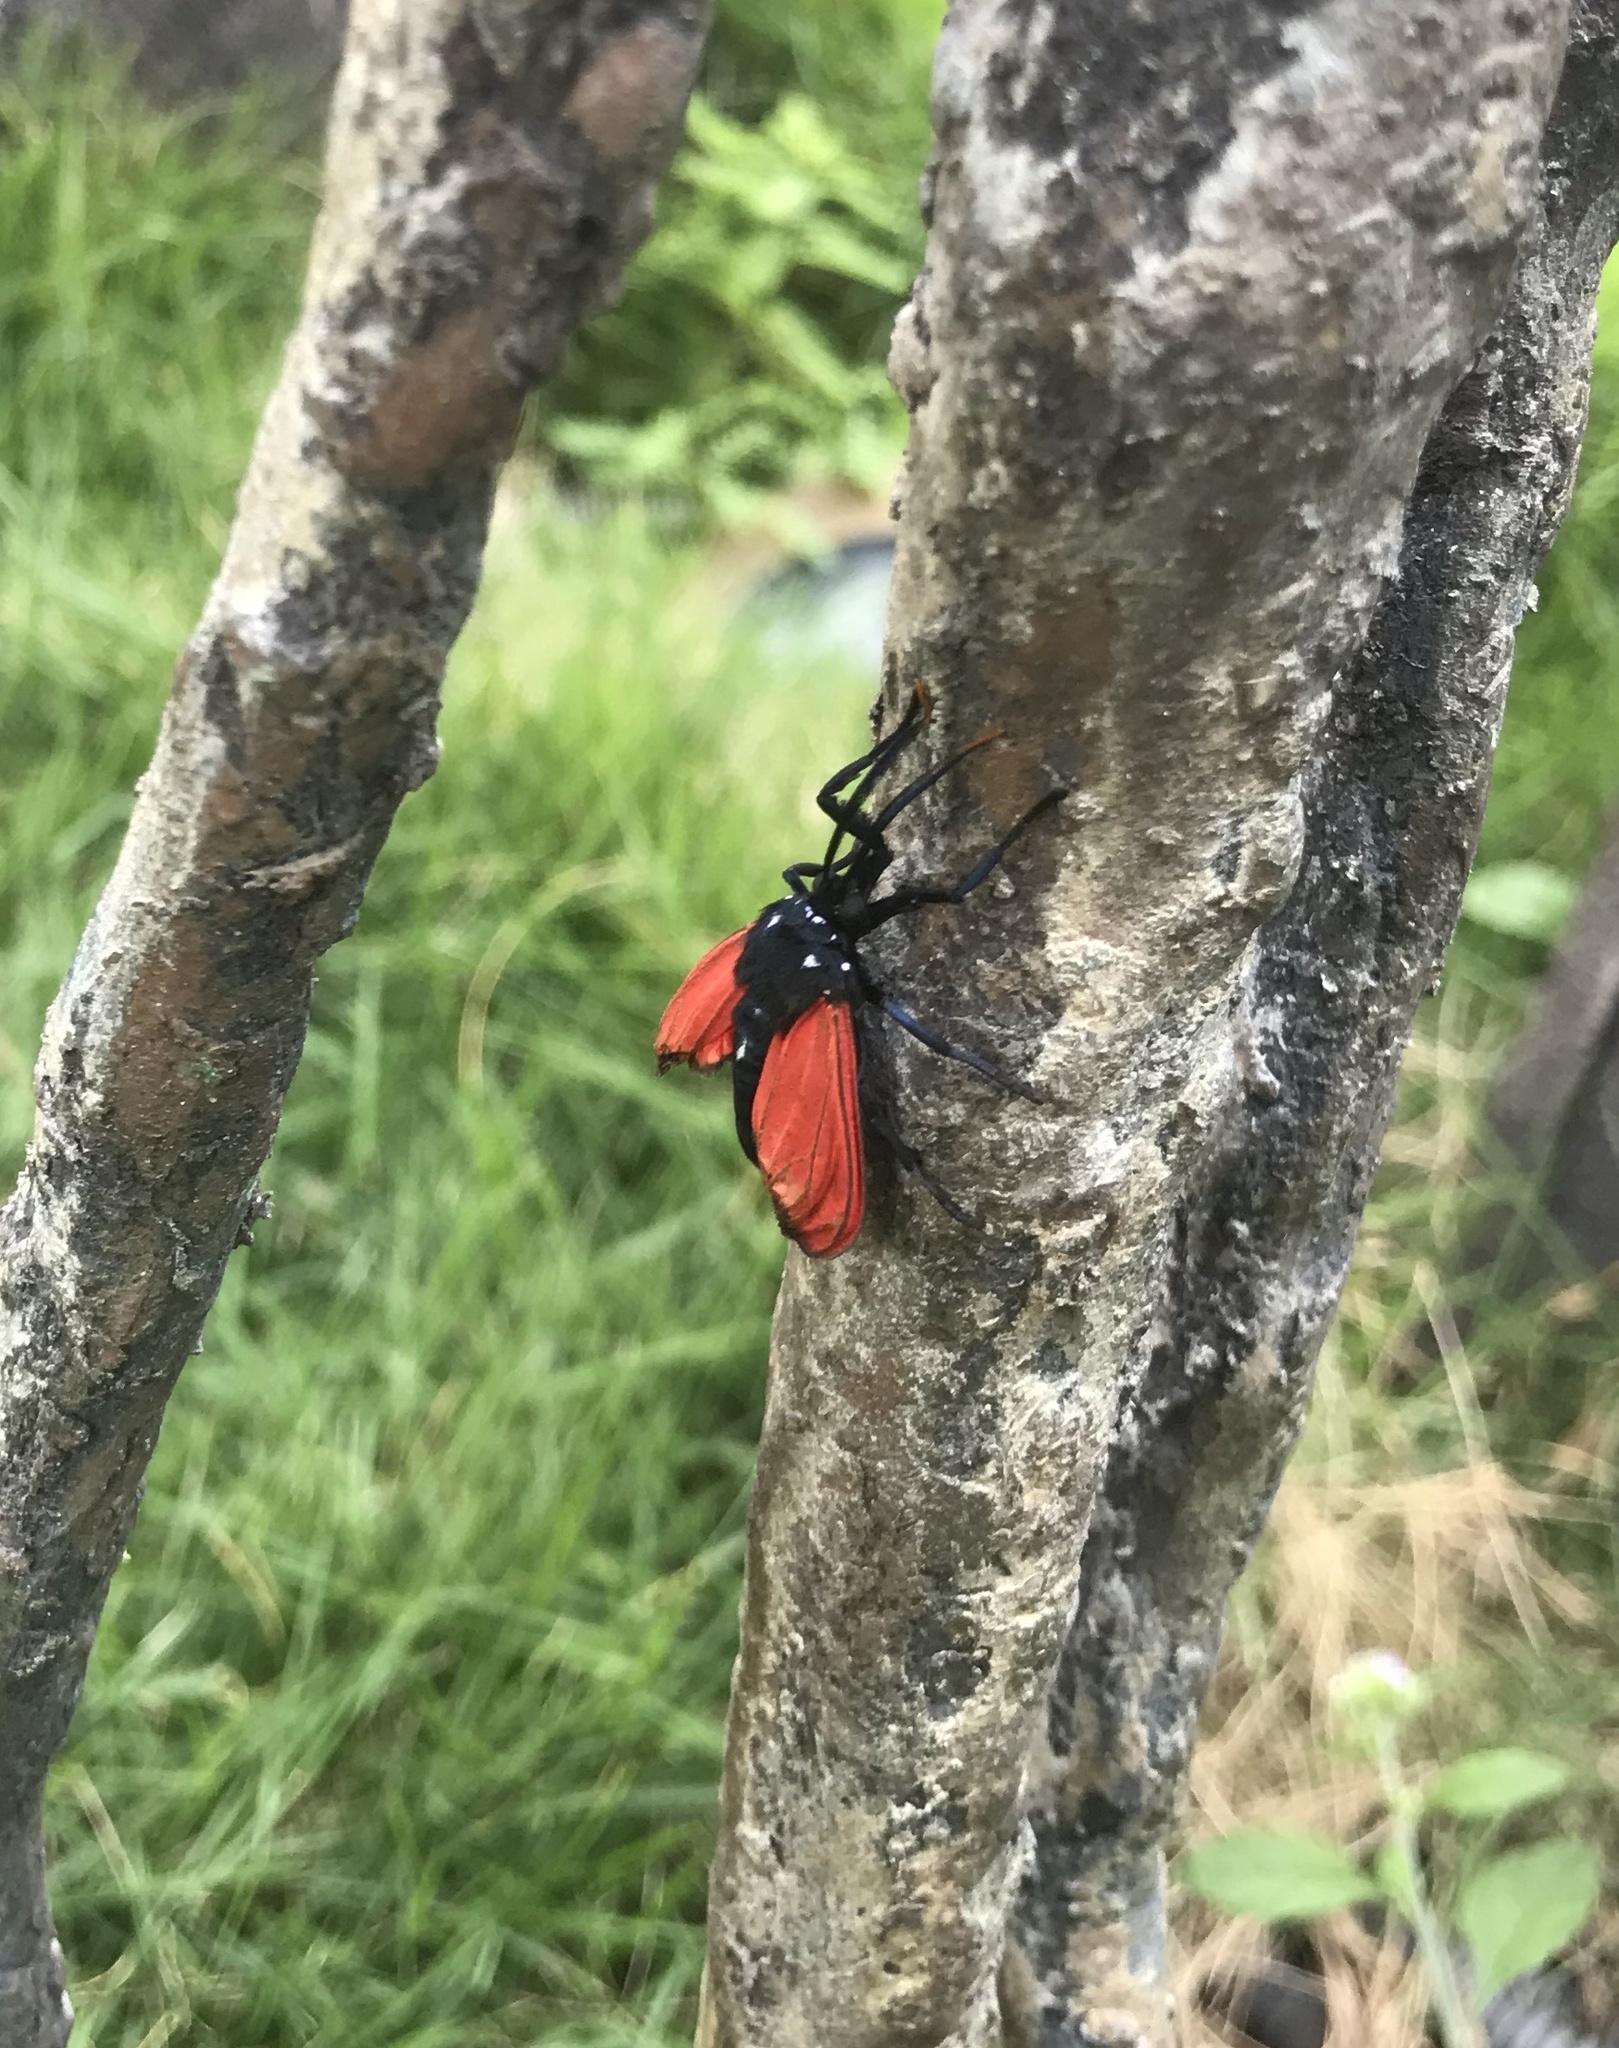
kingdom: Animalia
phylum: Arthropoda
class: Insecta
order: Lepidoptera
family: Erebidae
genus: Empyreuma
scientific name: Empyreuma pugione
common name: Spotted oleander caterpillar moth
